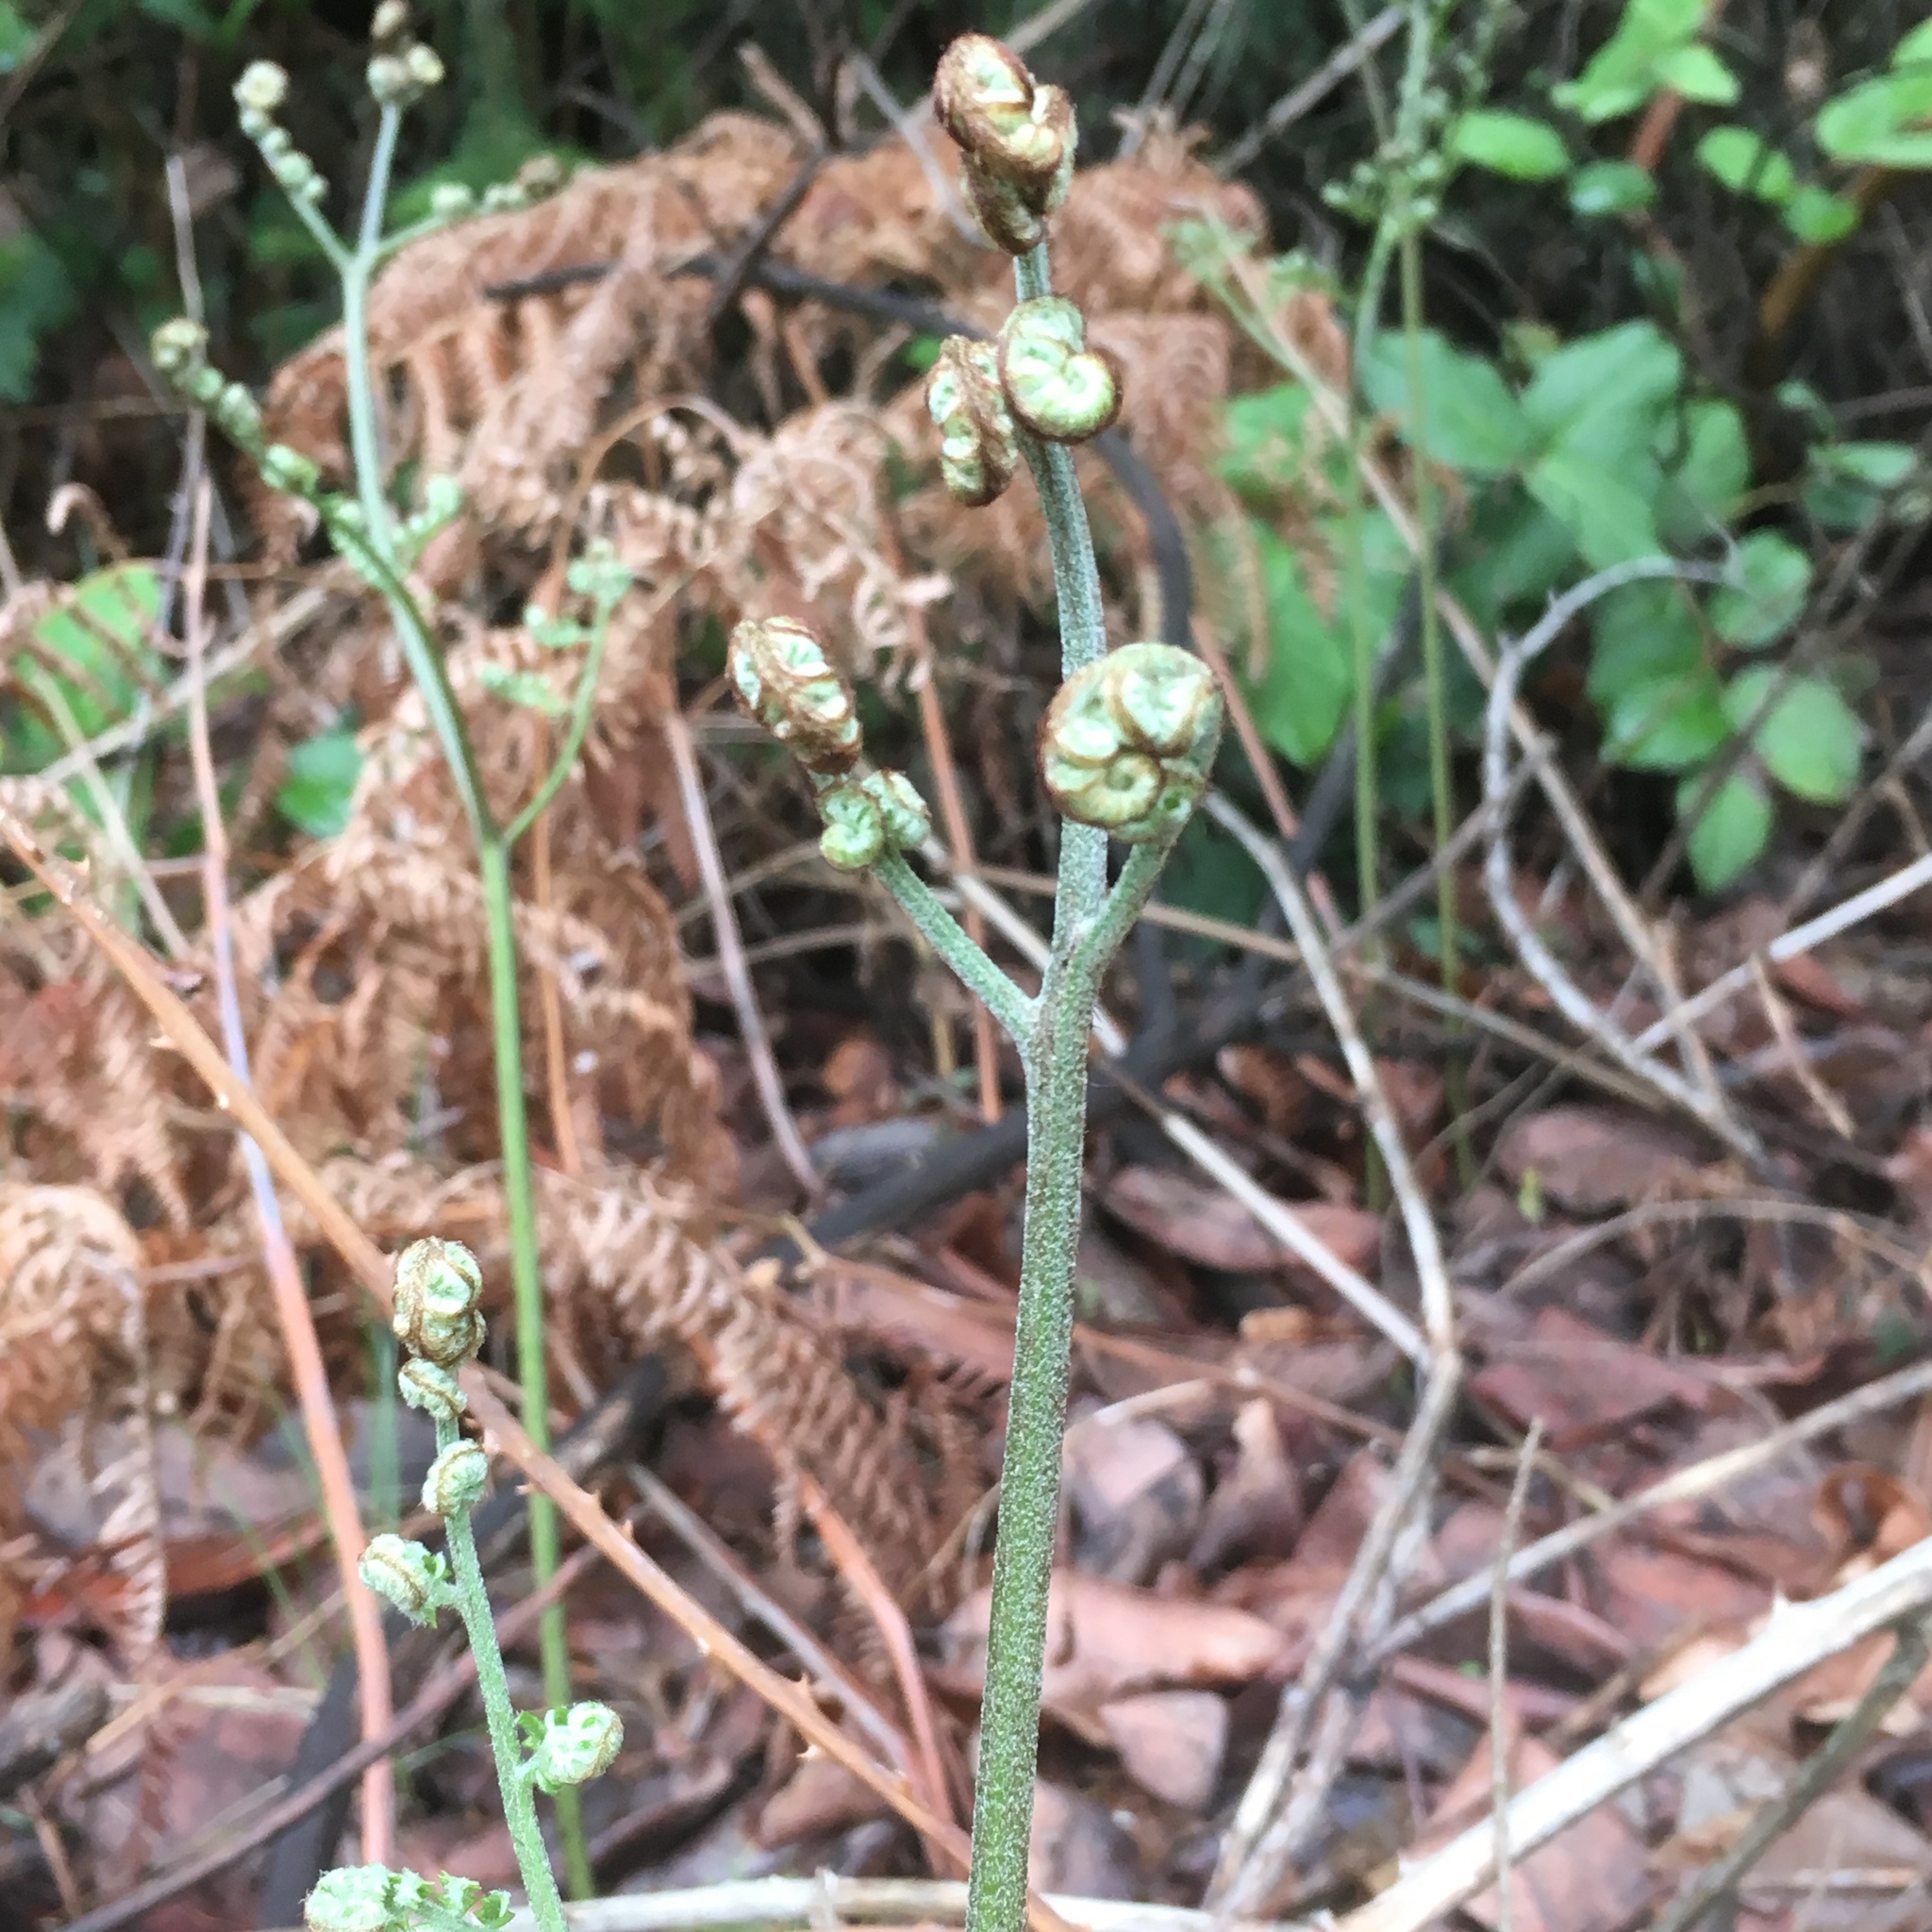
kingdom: Plantae
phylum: Tracheophyta
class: Polypodiopsida
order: Polypodiales
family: Dennstaedtiaceae
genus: Pteridium
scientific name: Pteridium aquilinum
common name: Bracken
